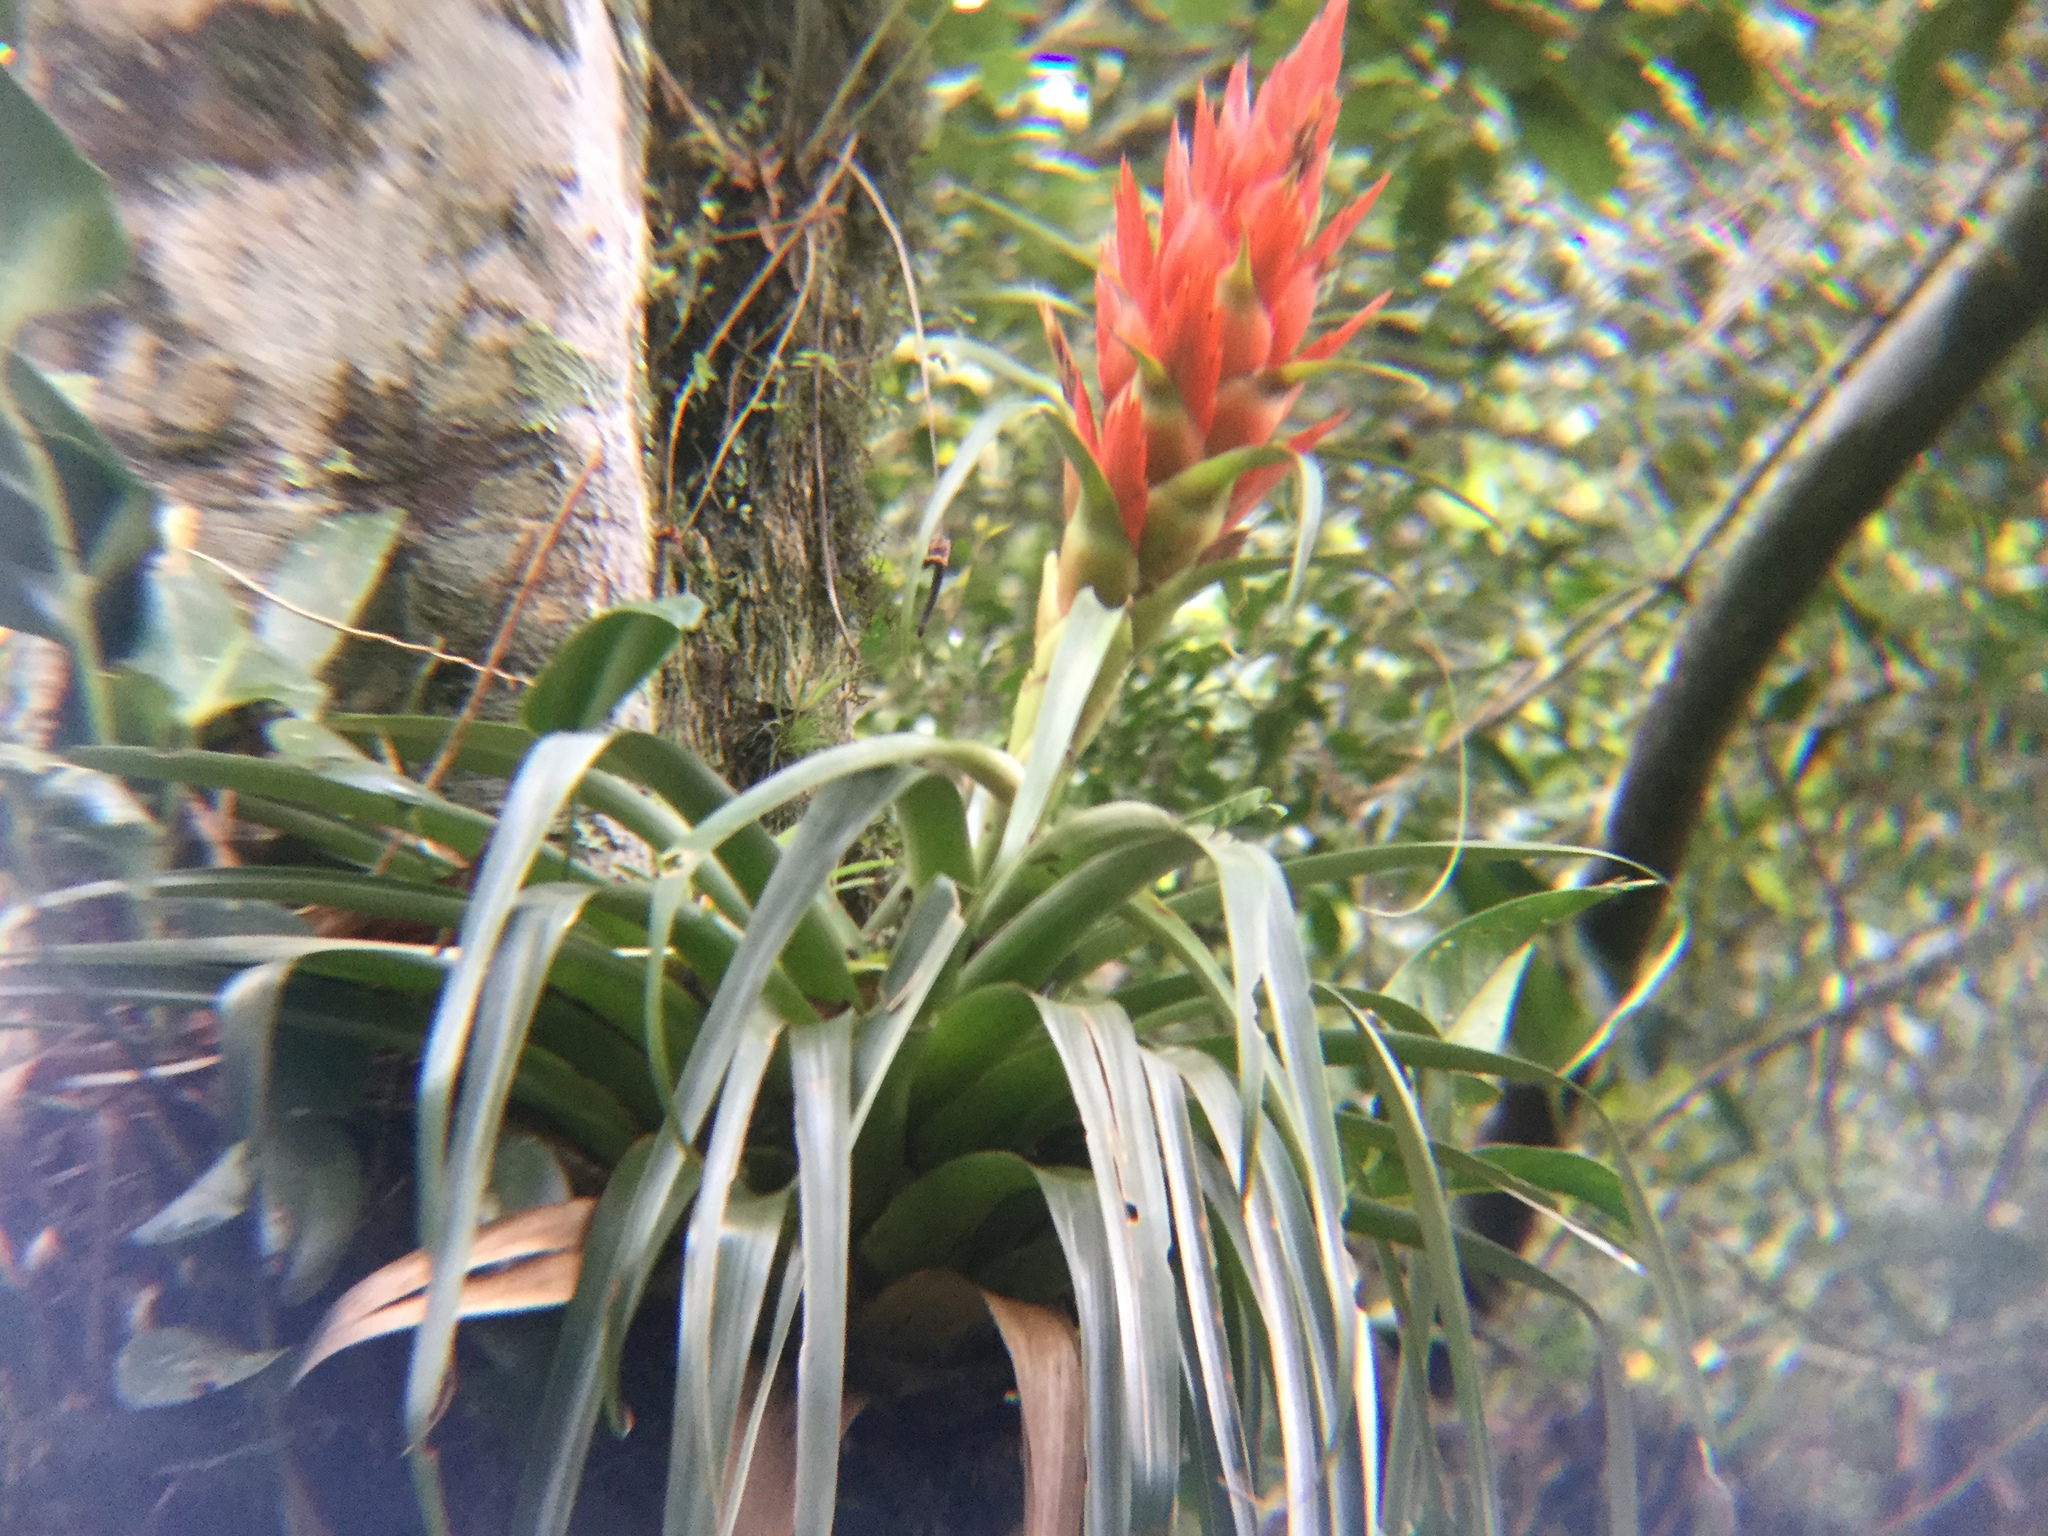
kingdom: Plantae
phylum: Tracheophyta
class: Liliopsida
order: Poales
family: Bromeliaceae
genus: Tillandsia
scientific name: Tillandsia ponderosa
